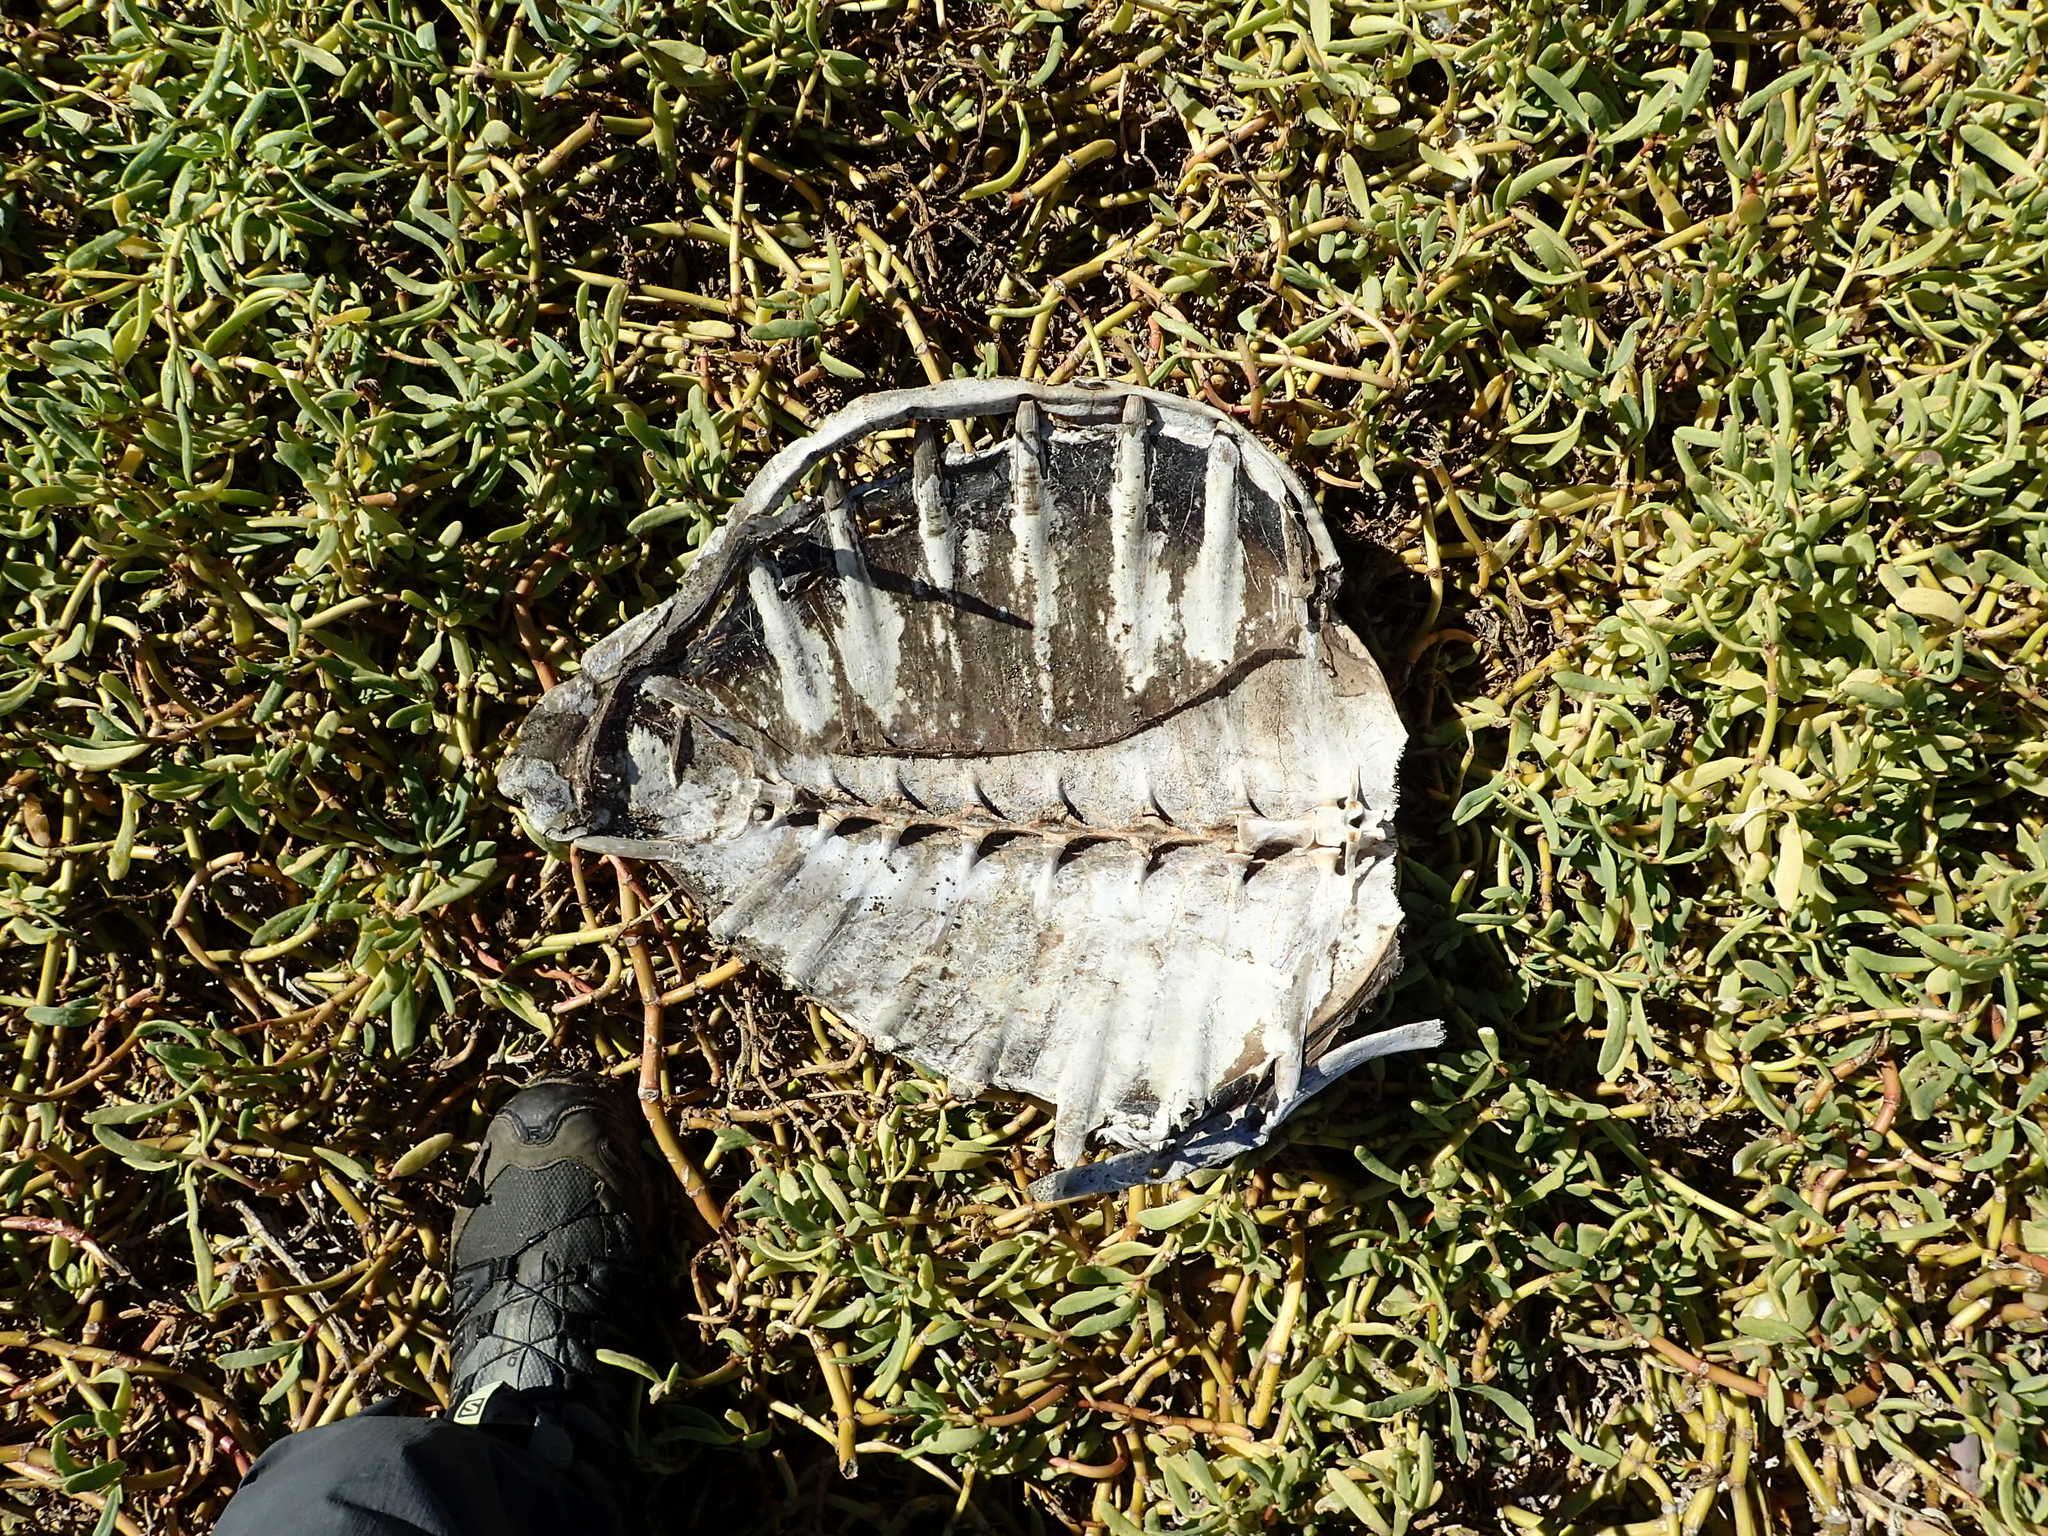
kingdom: Animalia
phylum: Chordata
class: Testudines
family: Cheloniidae
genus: Chelonia
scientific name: Chelonia mydas
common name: Green turtle
